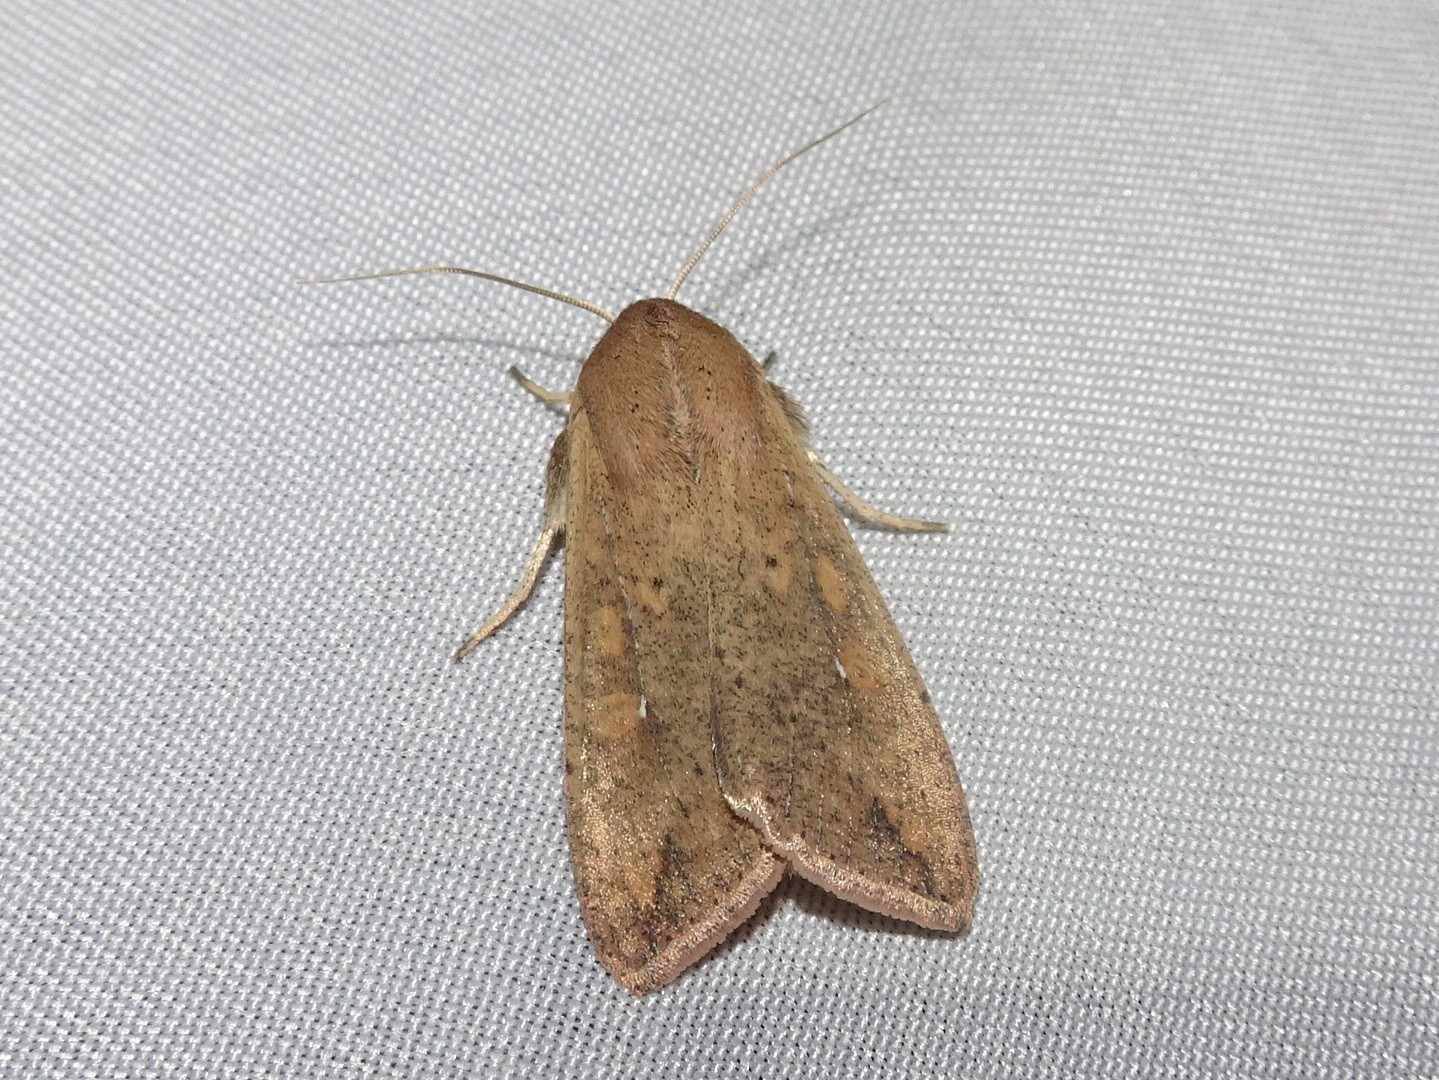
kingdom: Animalia
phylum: Arthropoda
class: Insecta
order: Lepidoptera
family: Noctuidae
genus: Mythimna
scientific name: Mythimna unipuncta
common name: White-speck
